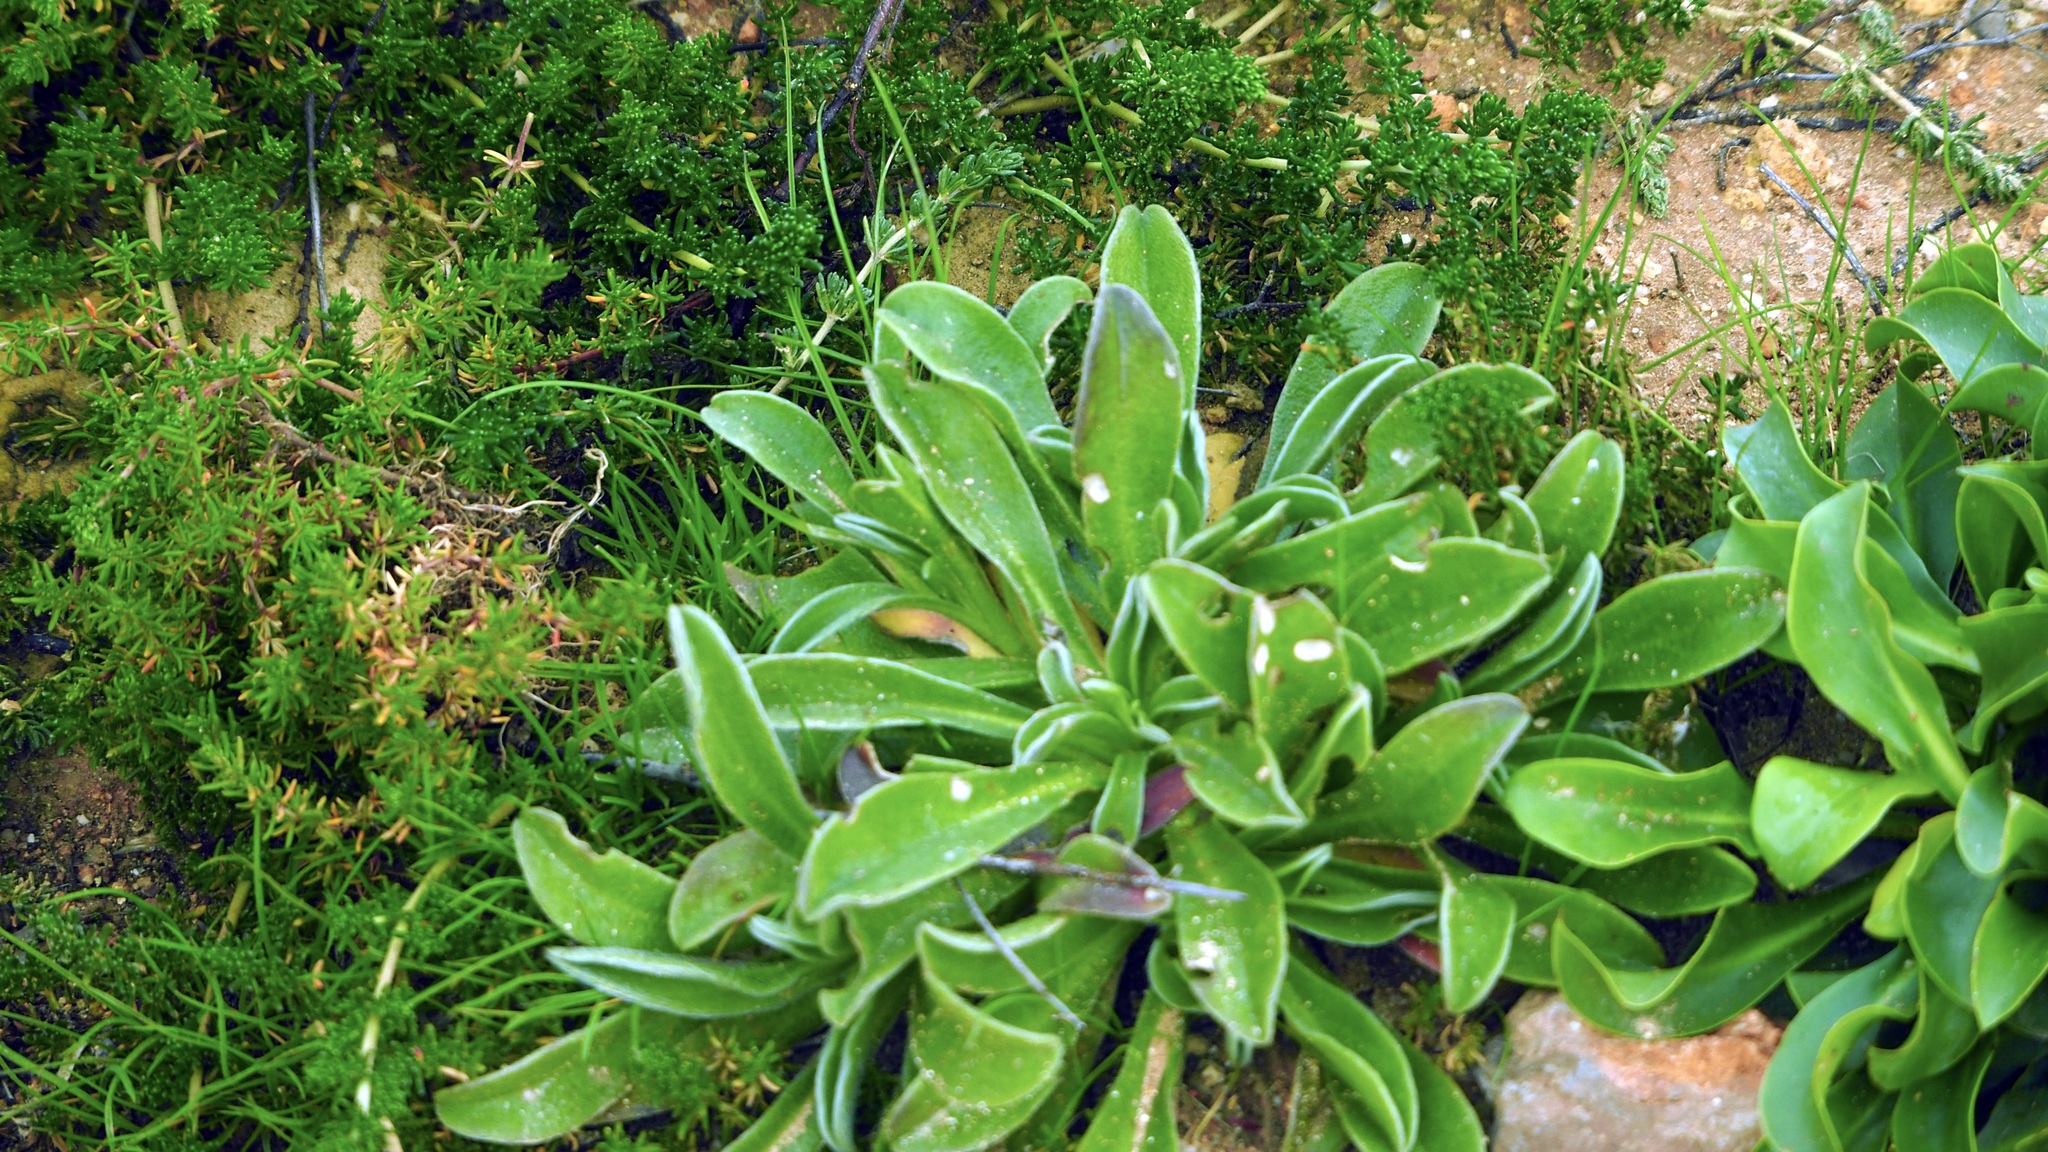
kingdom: Plantae
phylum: Tracheophyta
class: Magnoliopsida
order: Asterales
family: Asteraceae
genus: Pallenis
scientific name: Pallenis maritima
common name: Golden coin daisy
